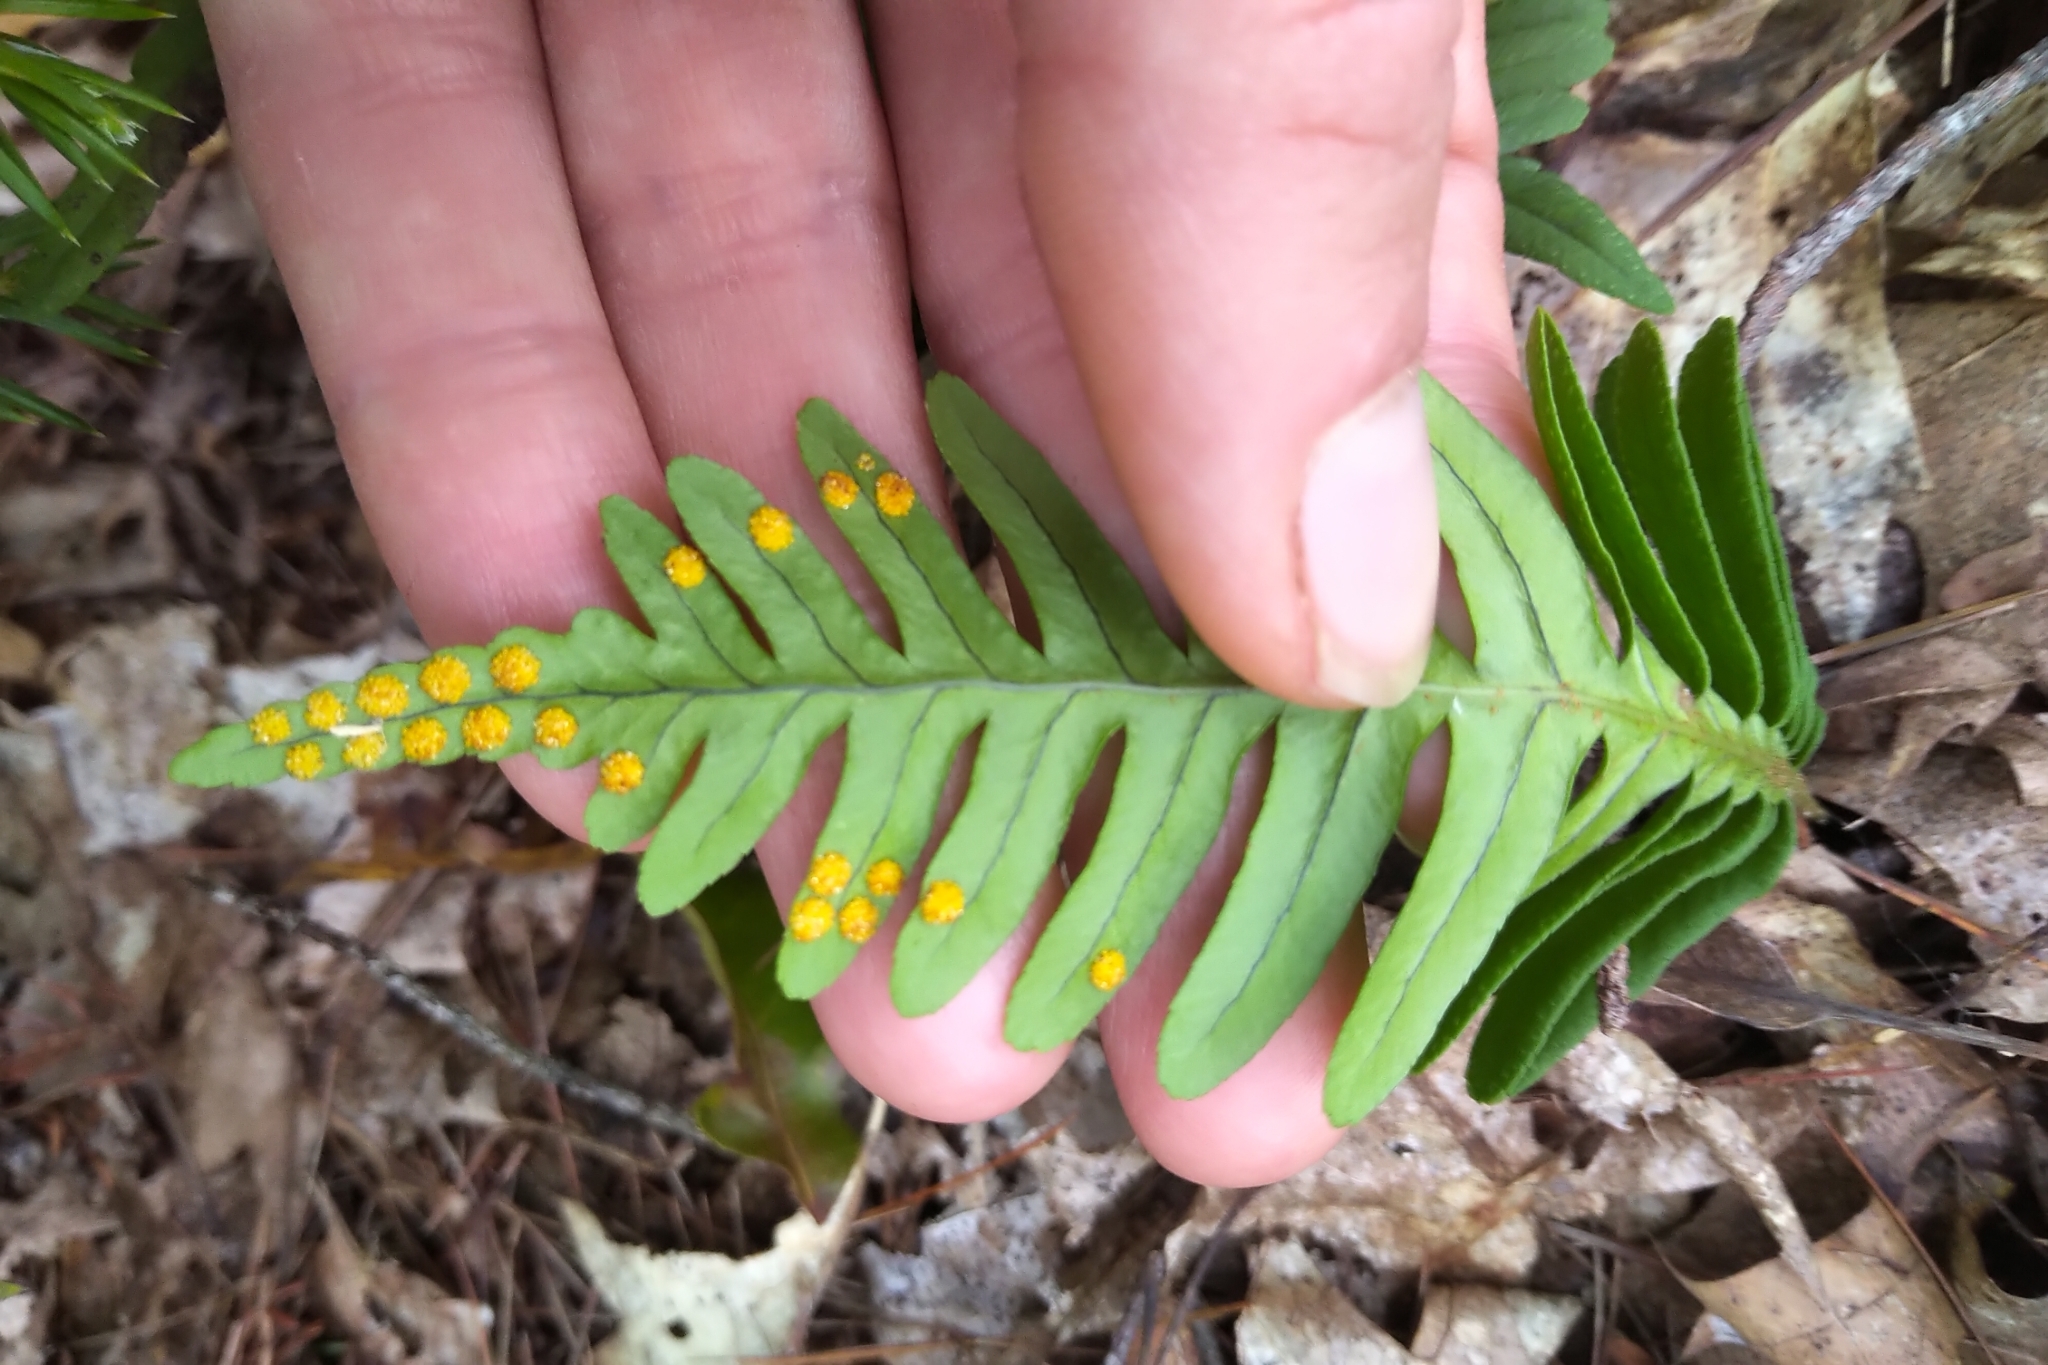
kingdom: Plantae
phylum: Tracheophyta
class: Polypodiopsida
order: Polypodiales
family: Polypodiaceae
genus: Polypodium
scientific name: Polypodium virginianum
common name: American wall fern
